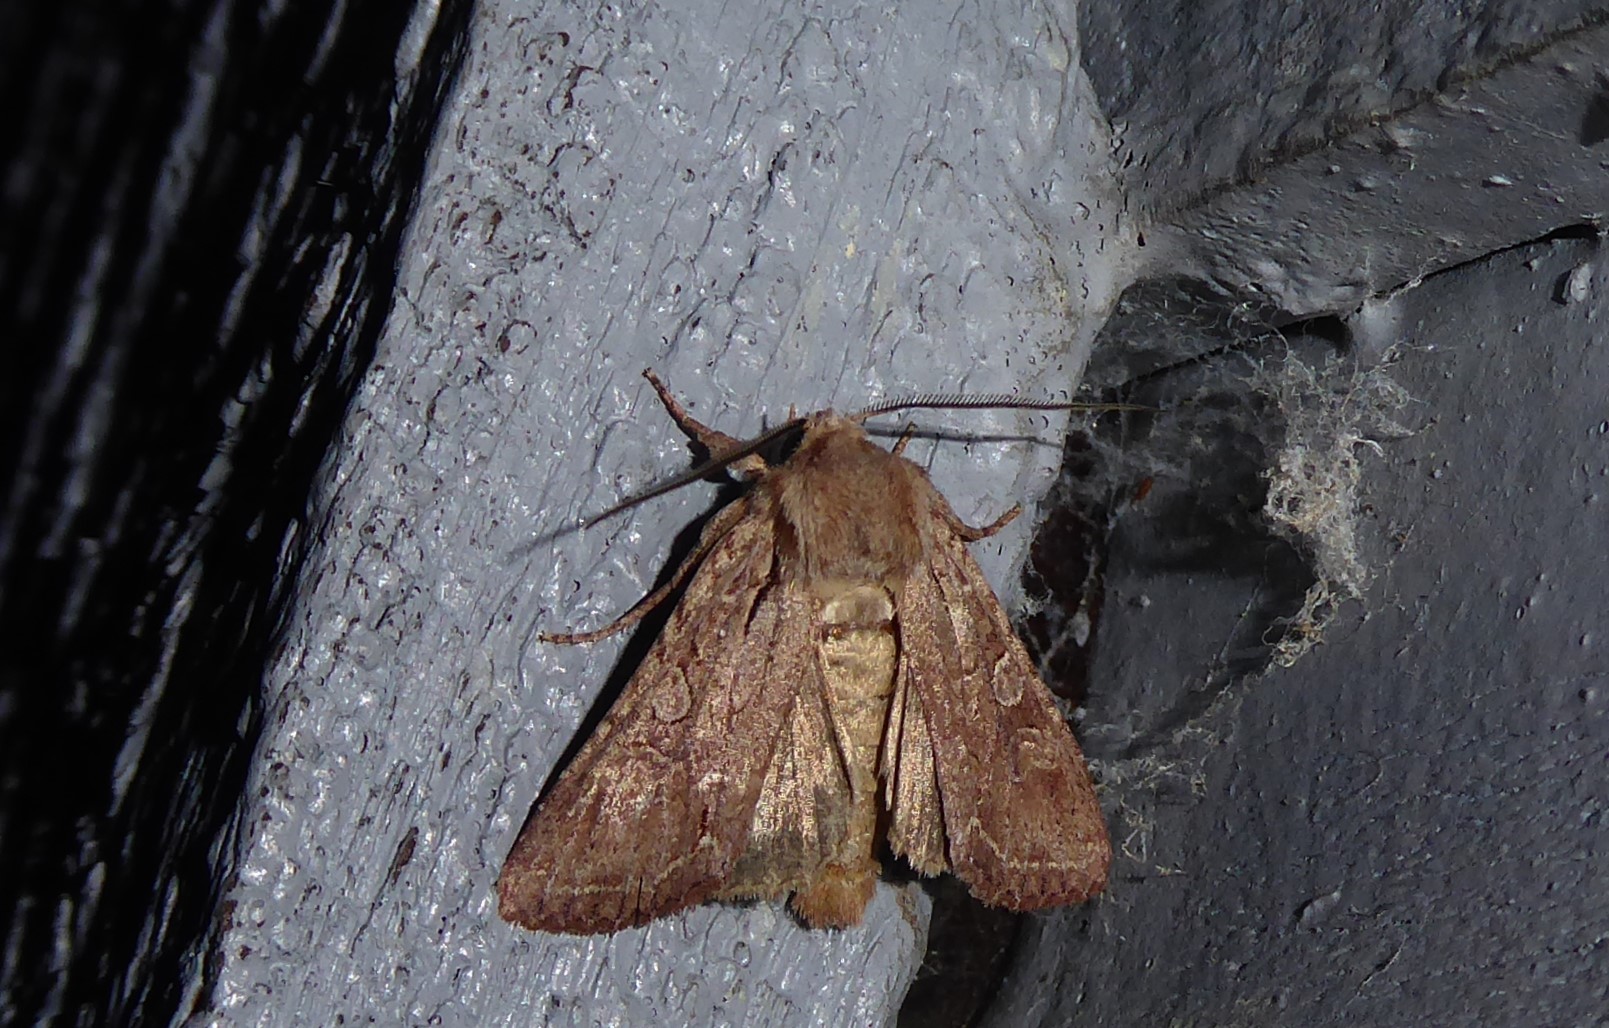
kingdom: Animalia
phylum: Arthropoda
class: Insecta
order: Lepidoptera
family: Noctuidae
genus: Ichneutica
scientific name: Ichneutica
